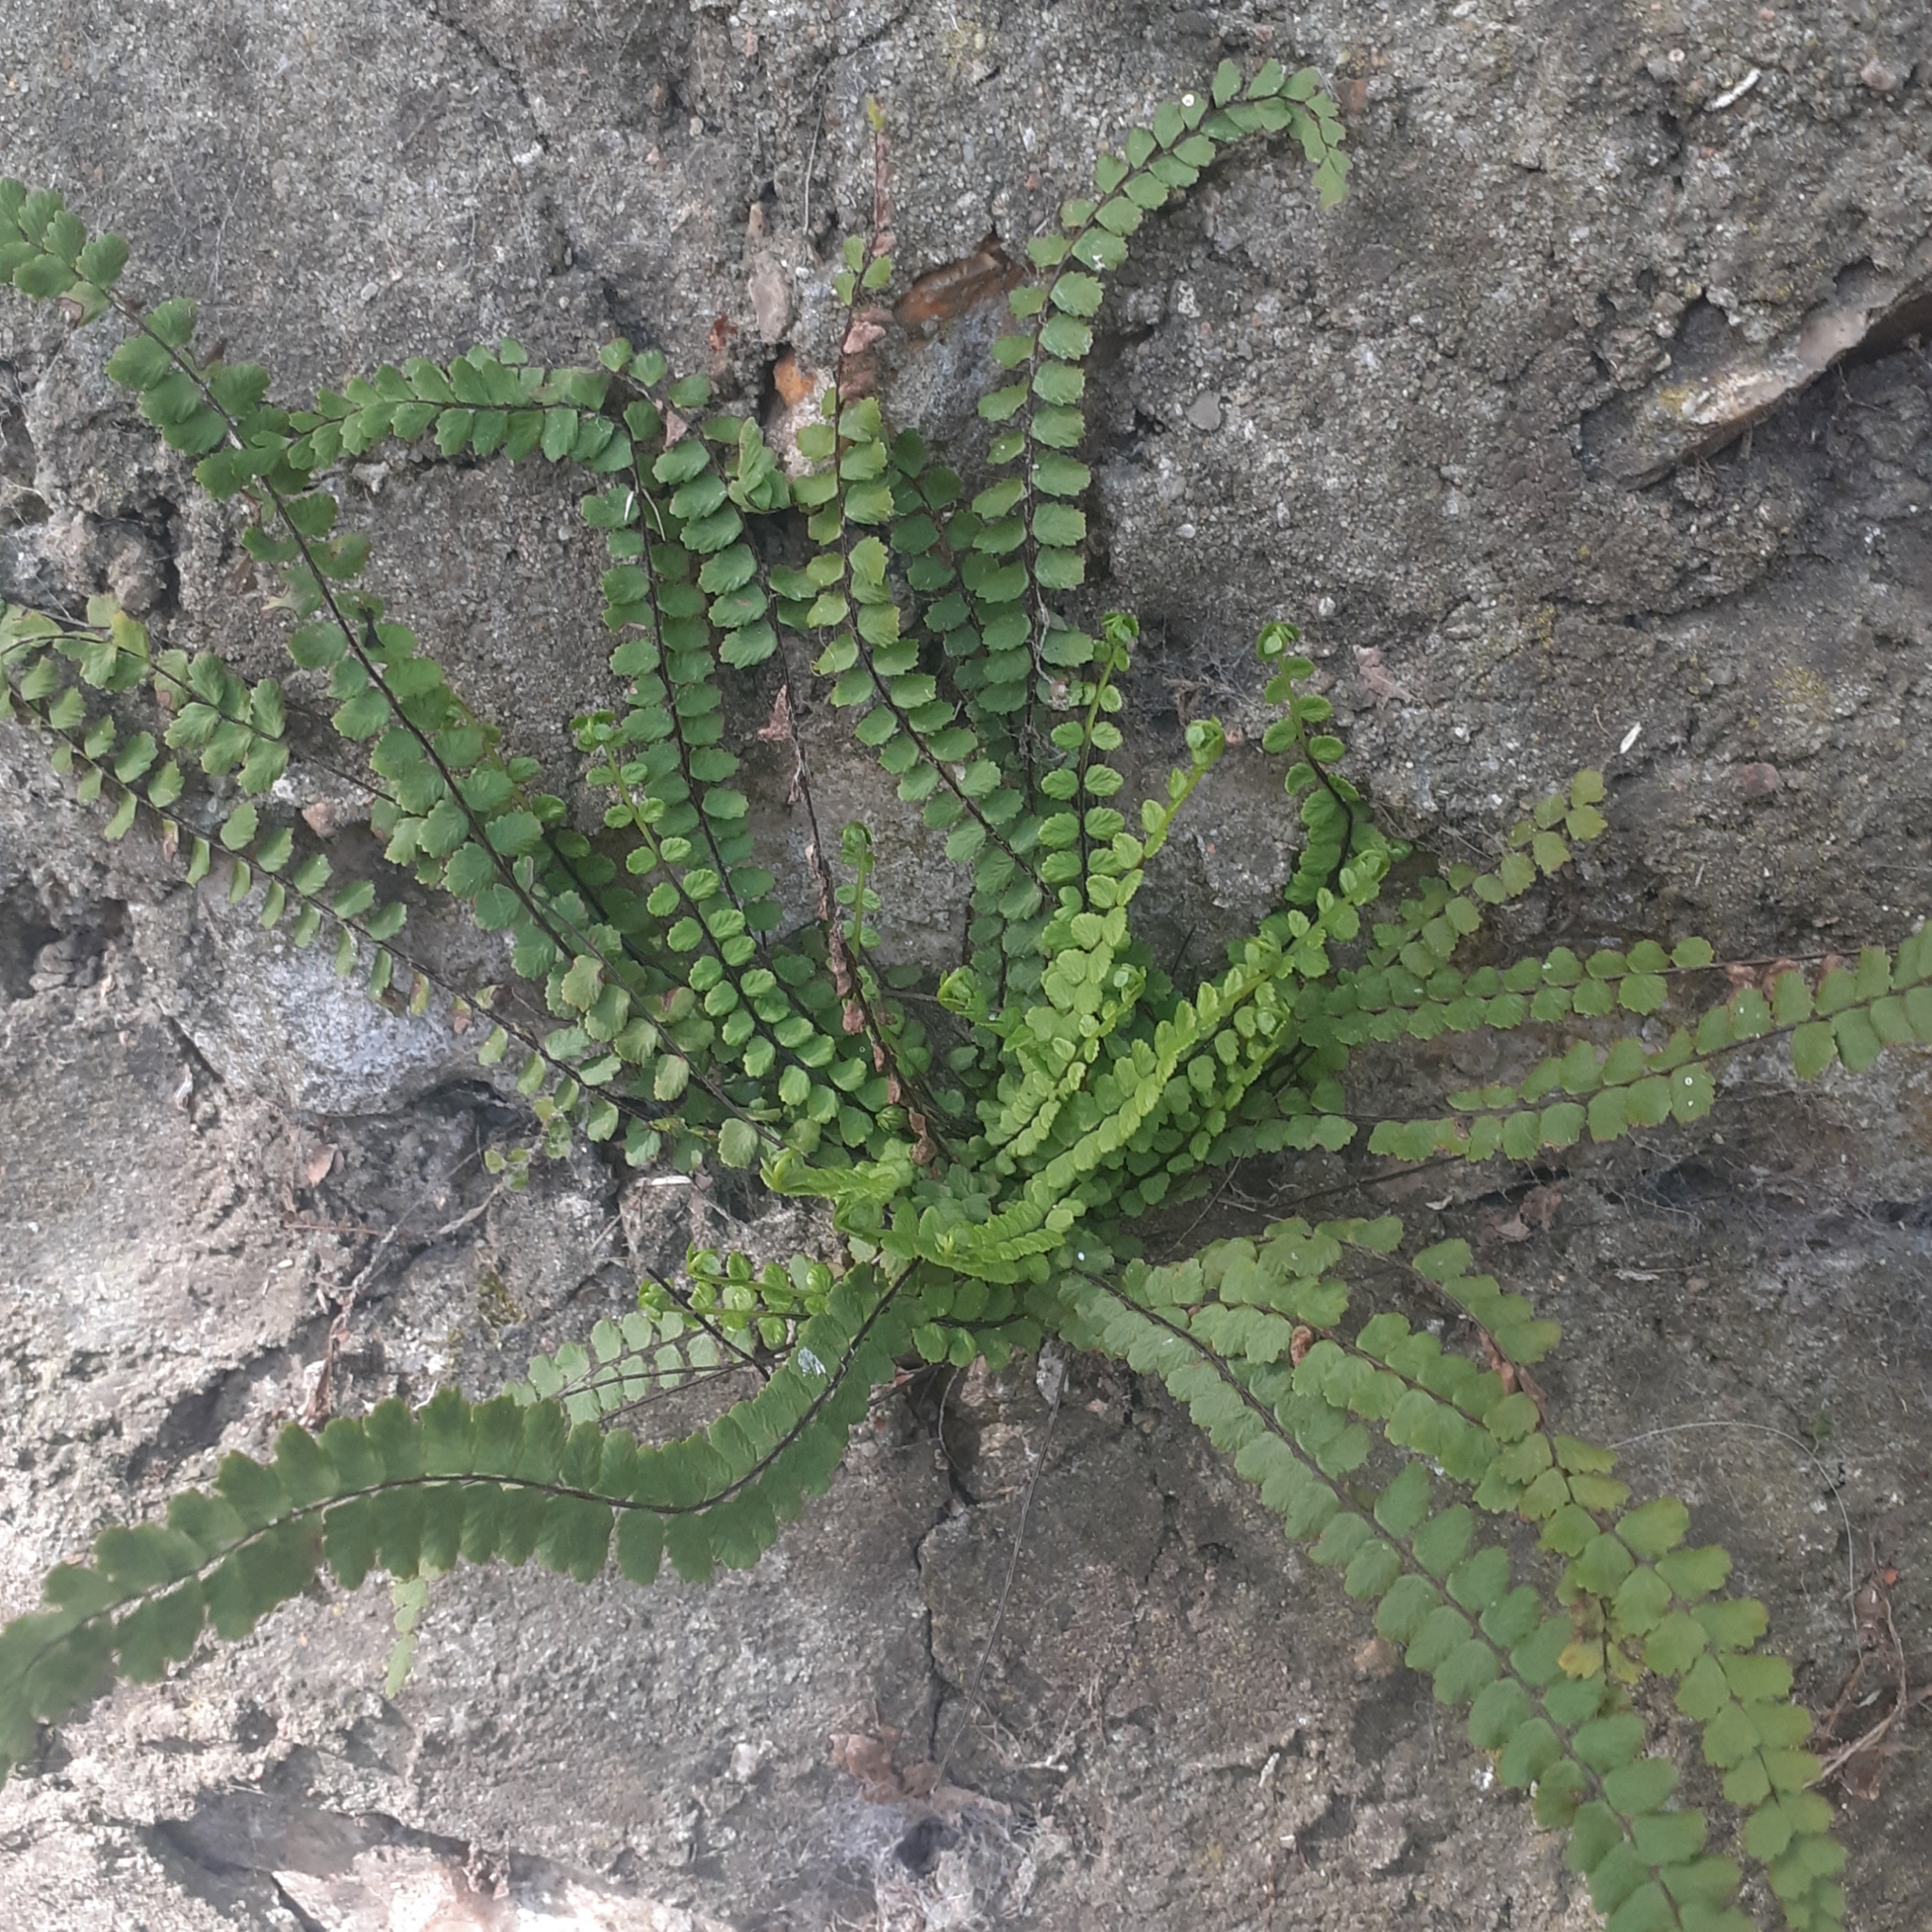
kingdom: Plantae
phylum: Tracheophyta
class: Polypodiopsida
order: Polypodiales
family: Aspleniaceae
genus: Asplenium
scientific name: Asplenium trichomanes
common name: Maidenhair spleenwort
